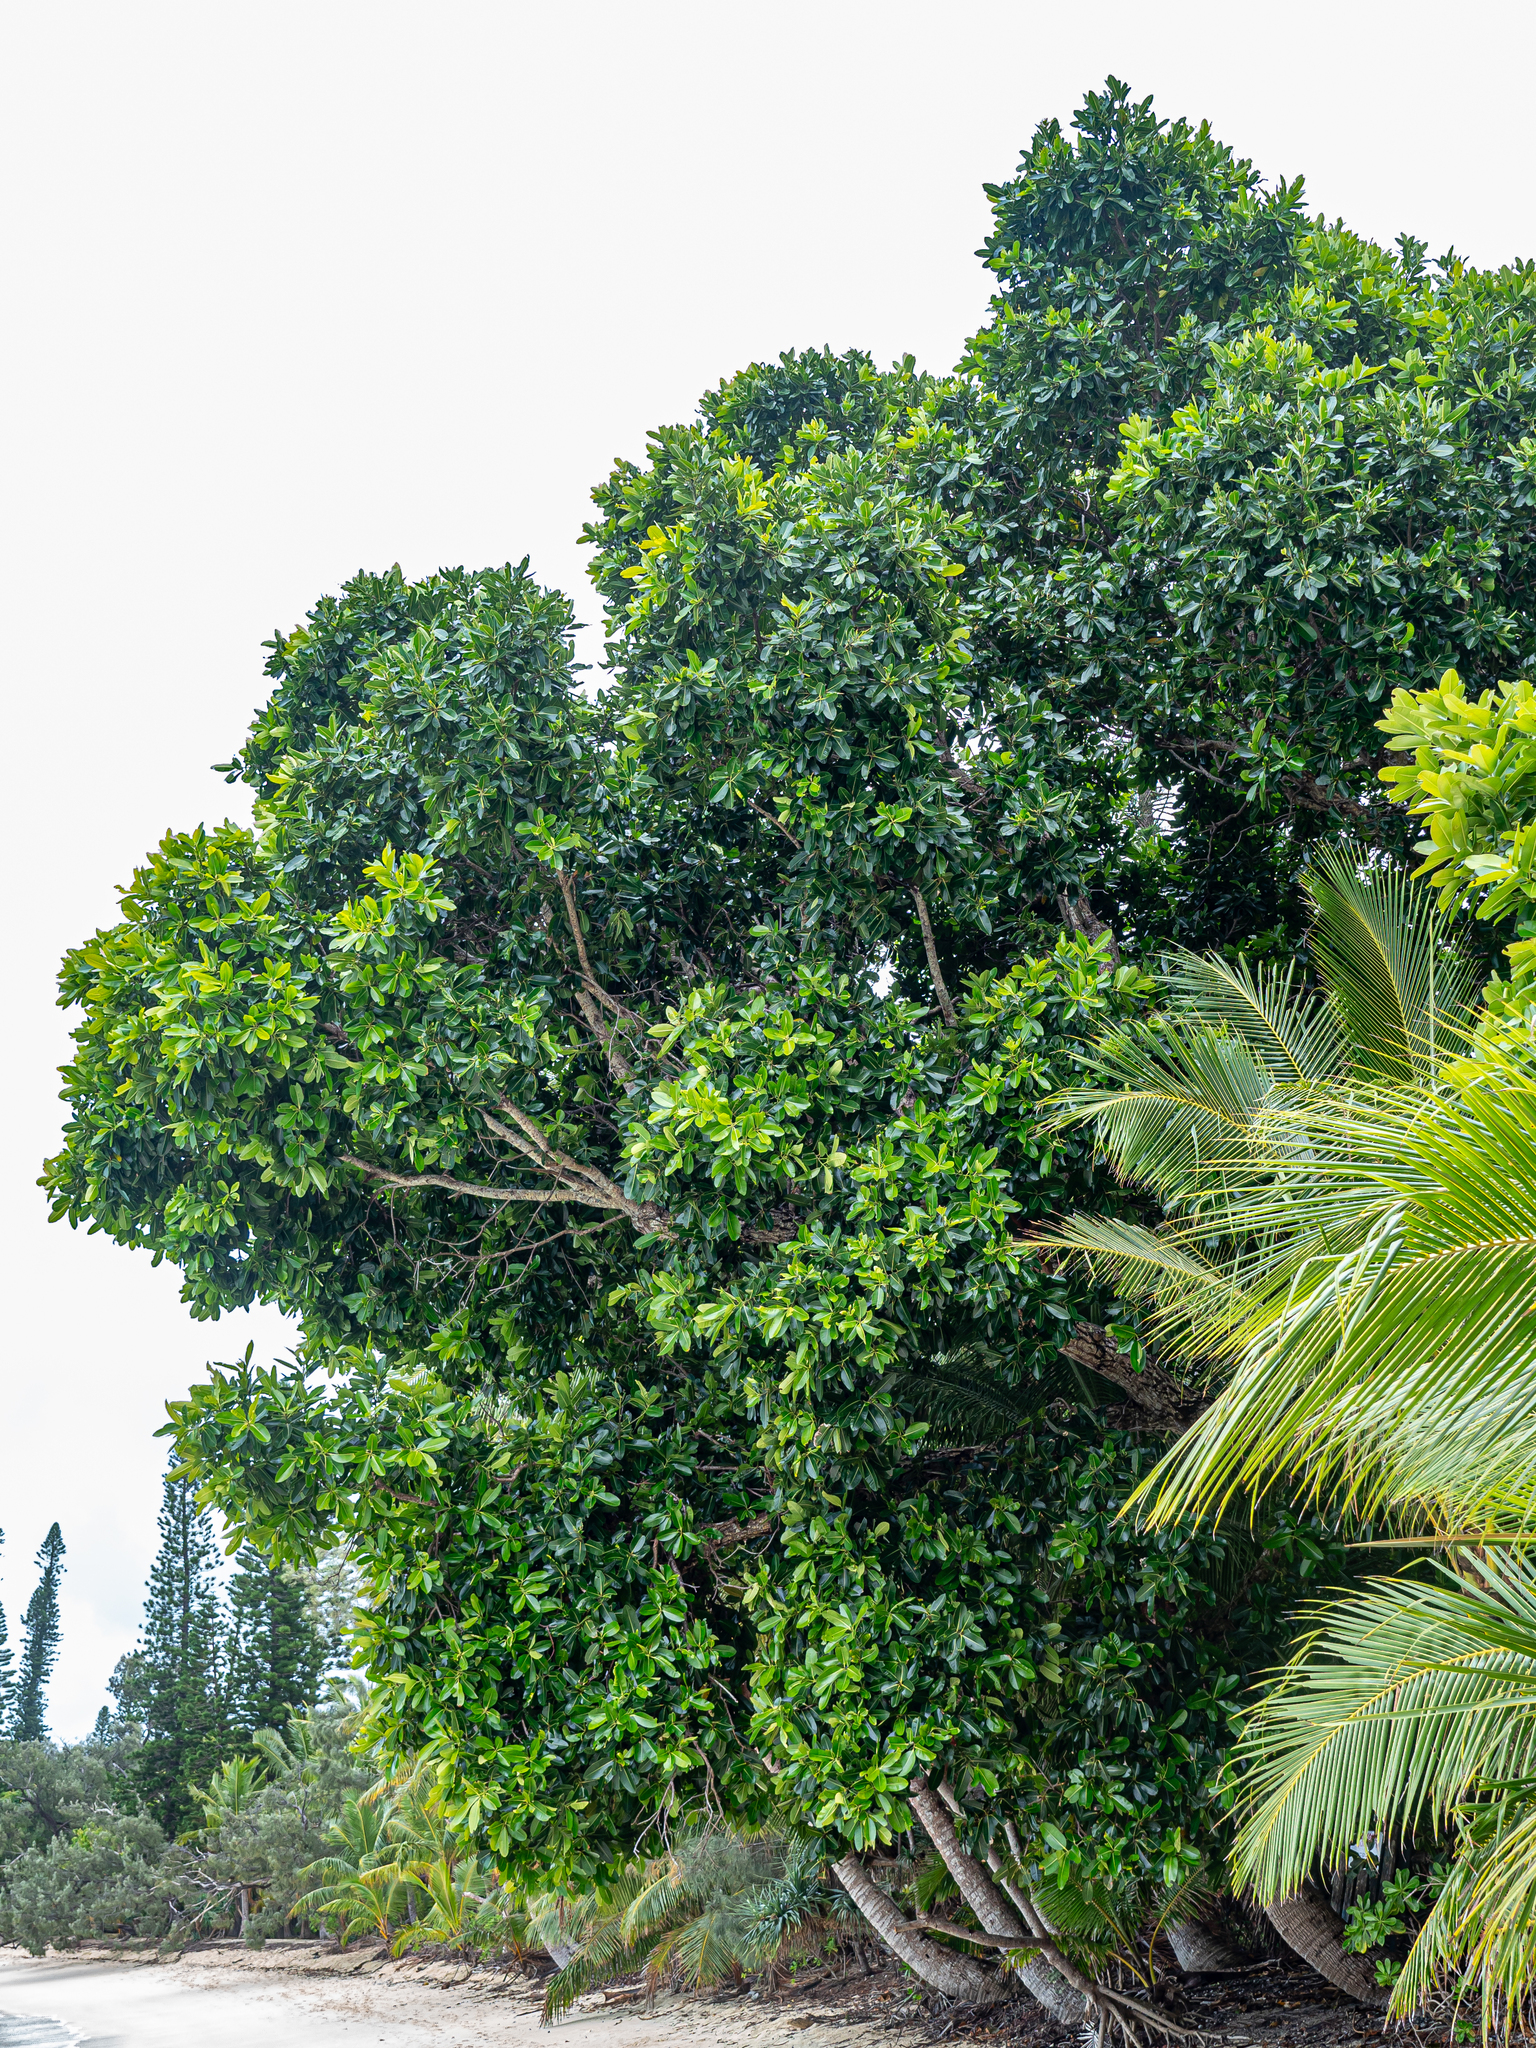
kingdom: Plantae
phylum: Tracheophyta
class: Magnoliopsida
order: Malpighiales
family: Calophyllaceae
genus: Calophyllum
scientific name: Calophyllum inophyllum
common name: Alexandrian laurel
